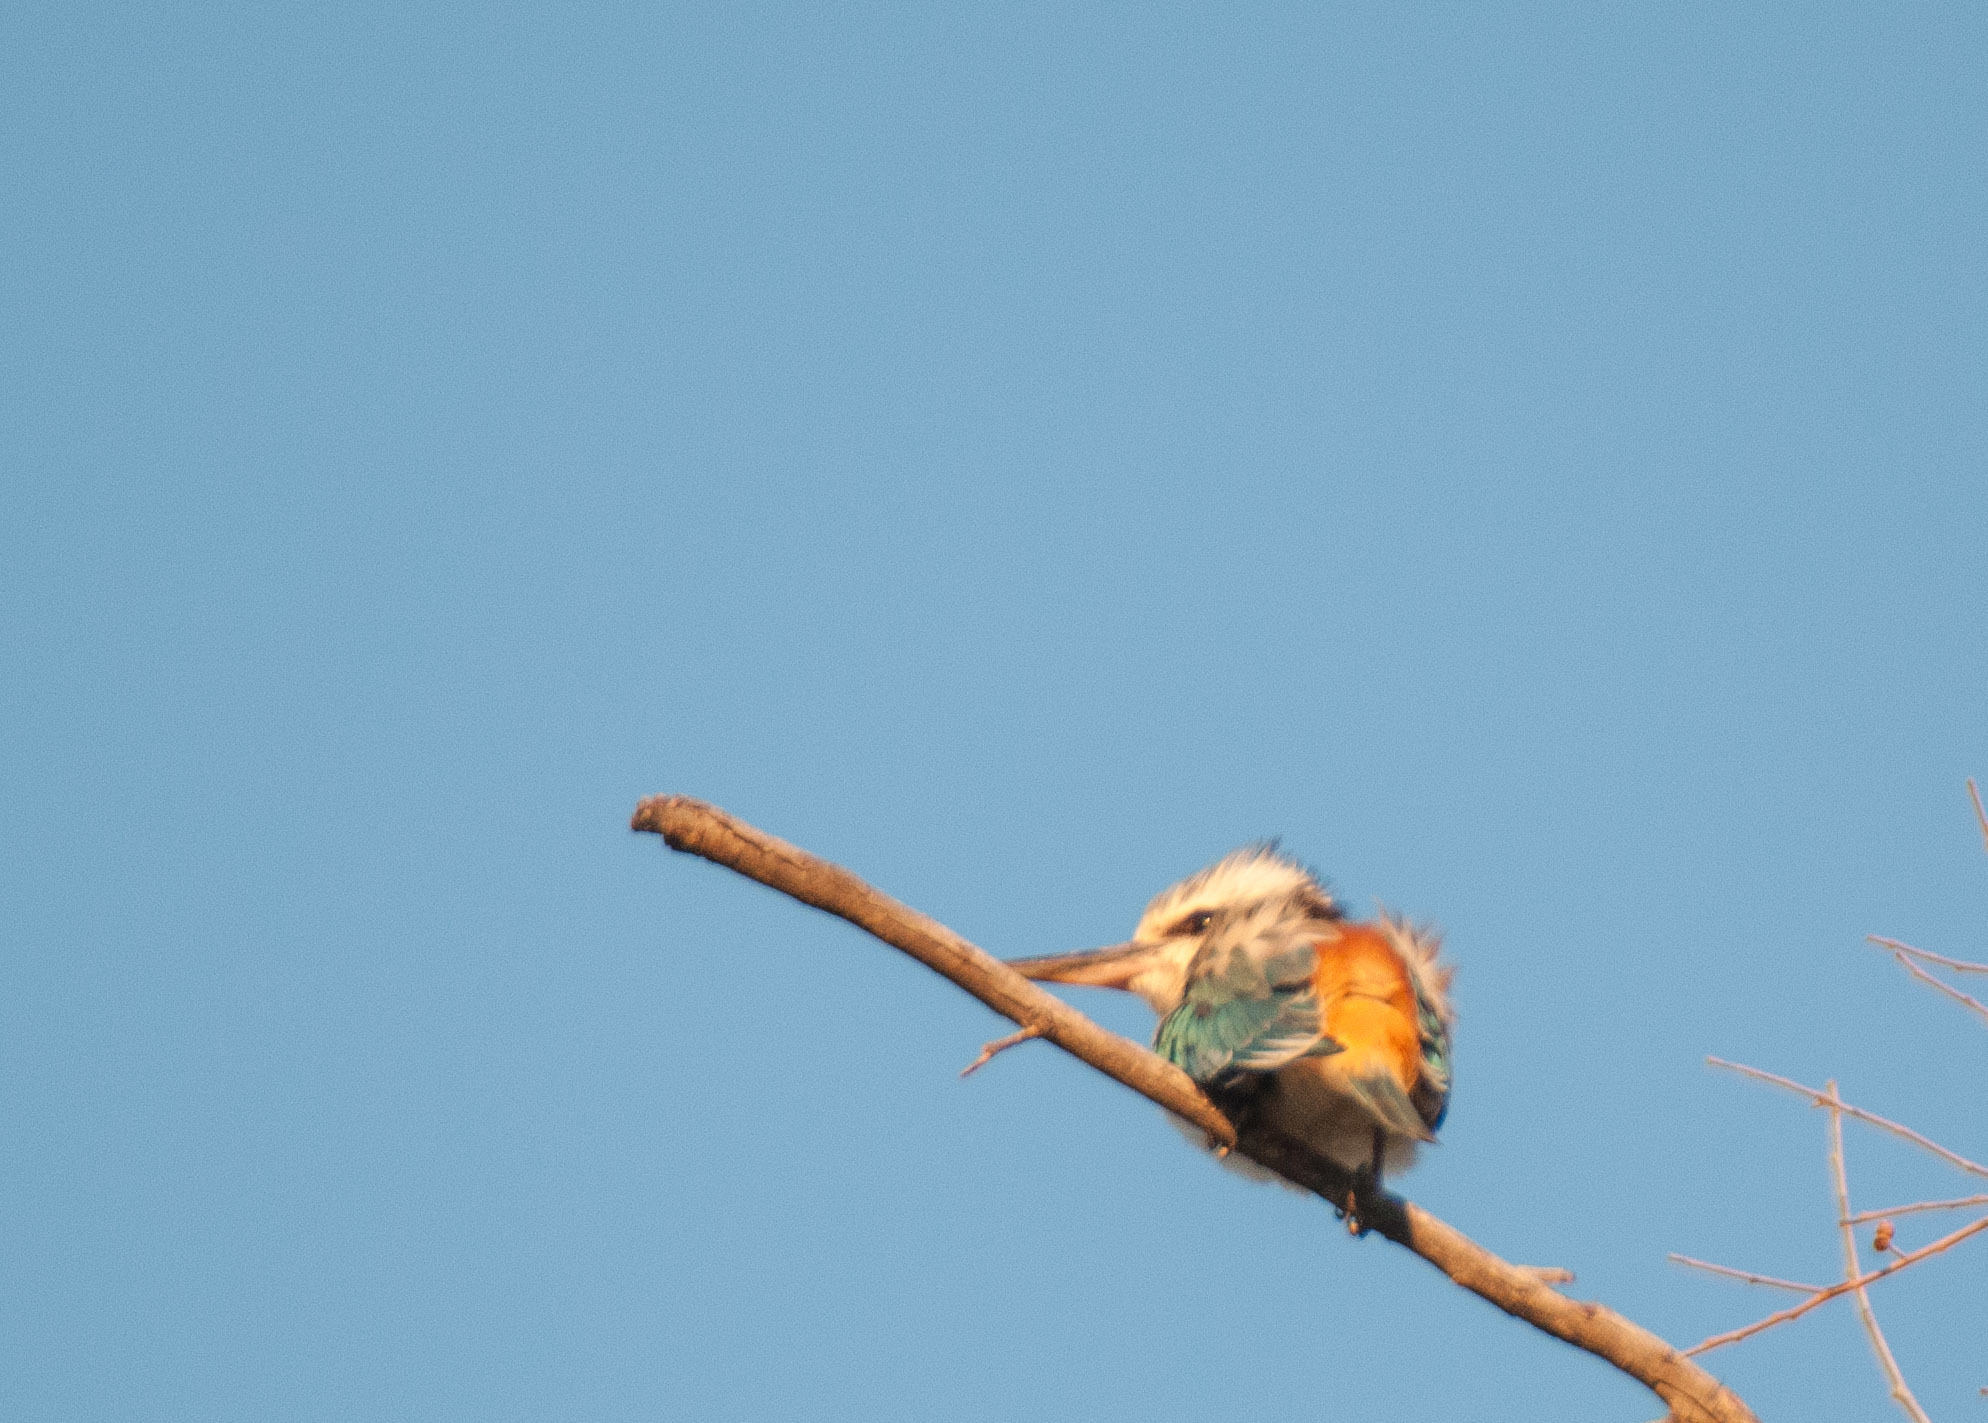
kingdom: Animalia
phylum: Chordata
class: Aves
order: Coraciiformes
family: Alcedinidae
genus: Todiramphus
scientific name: Todiramphus pyrrhopygius
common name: Red-backed kingfisher
